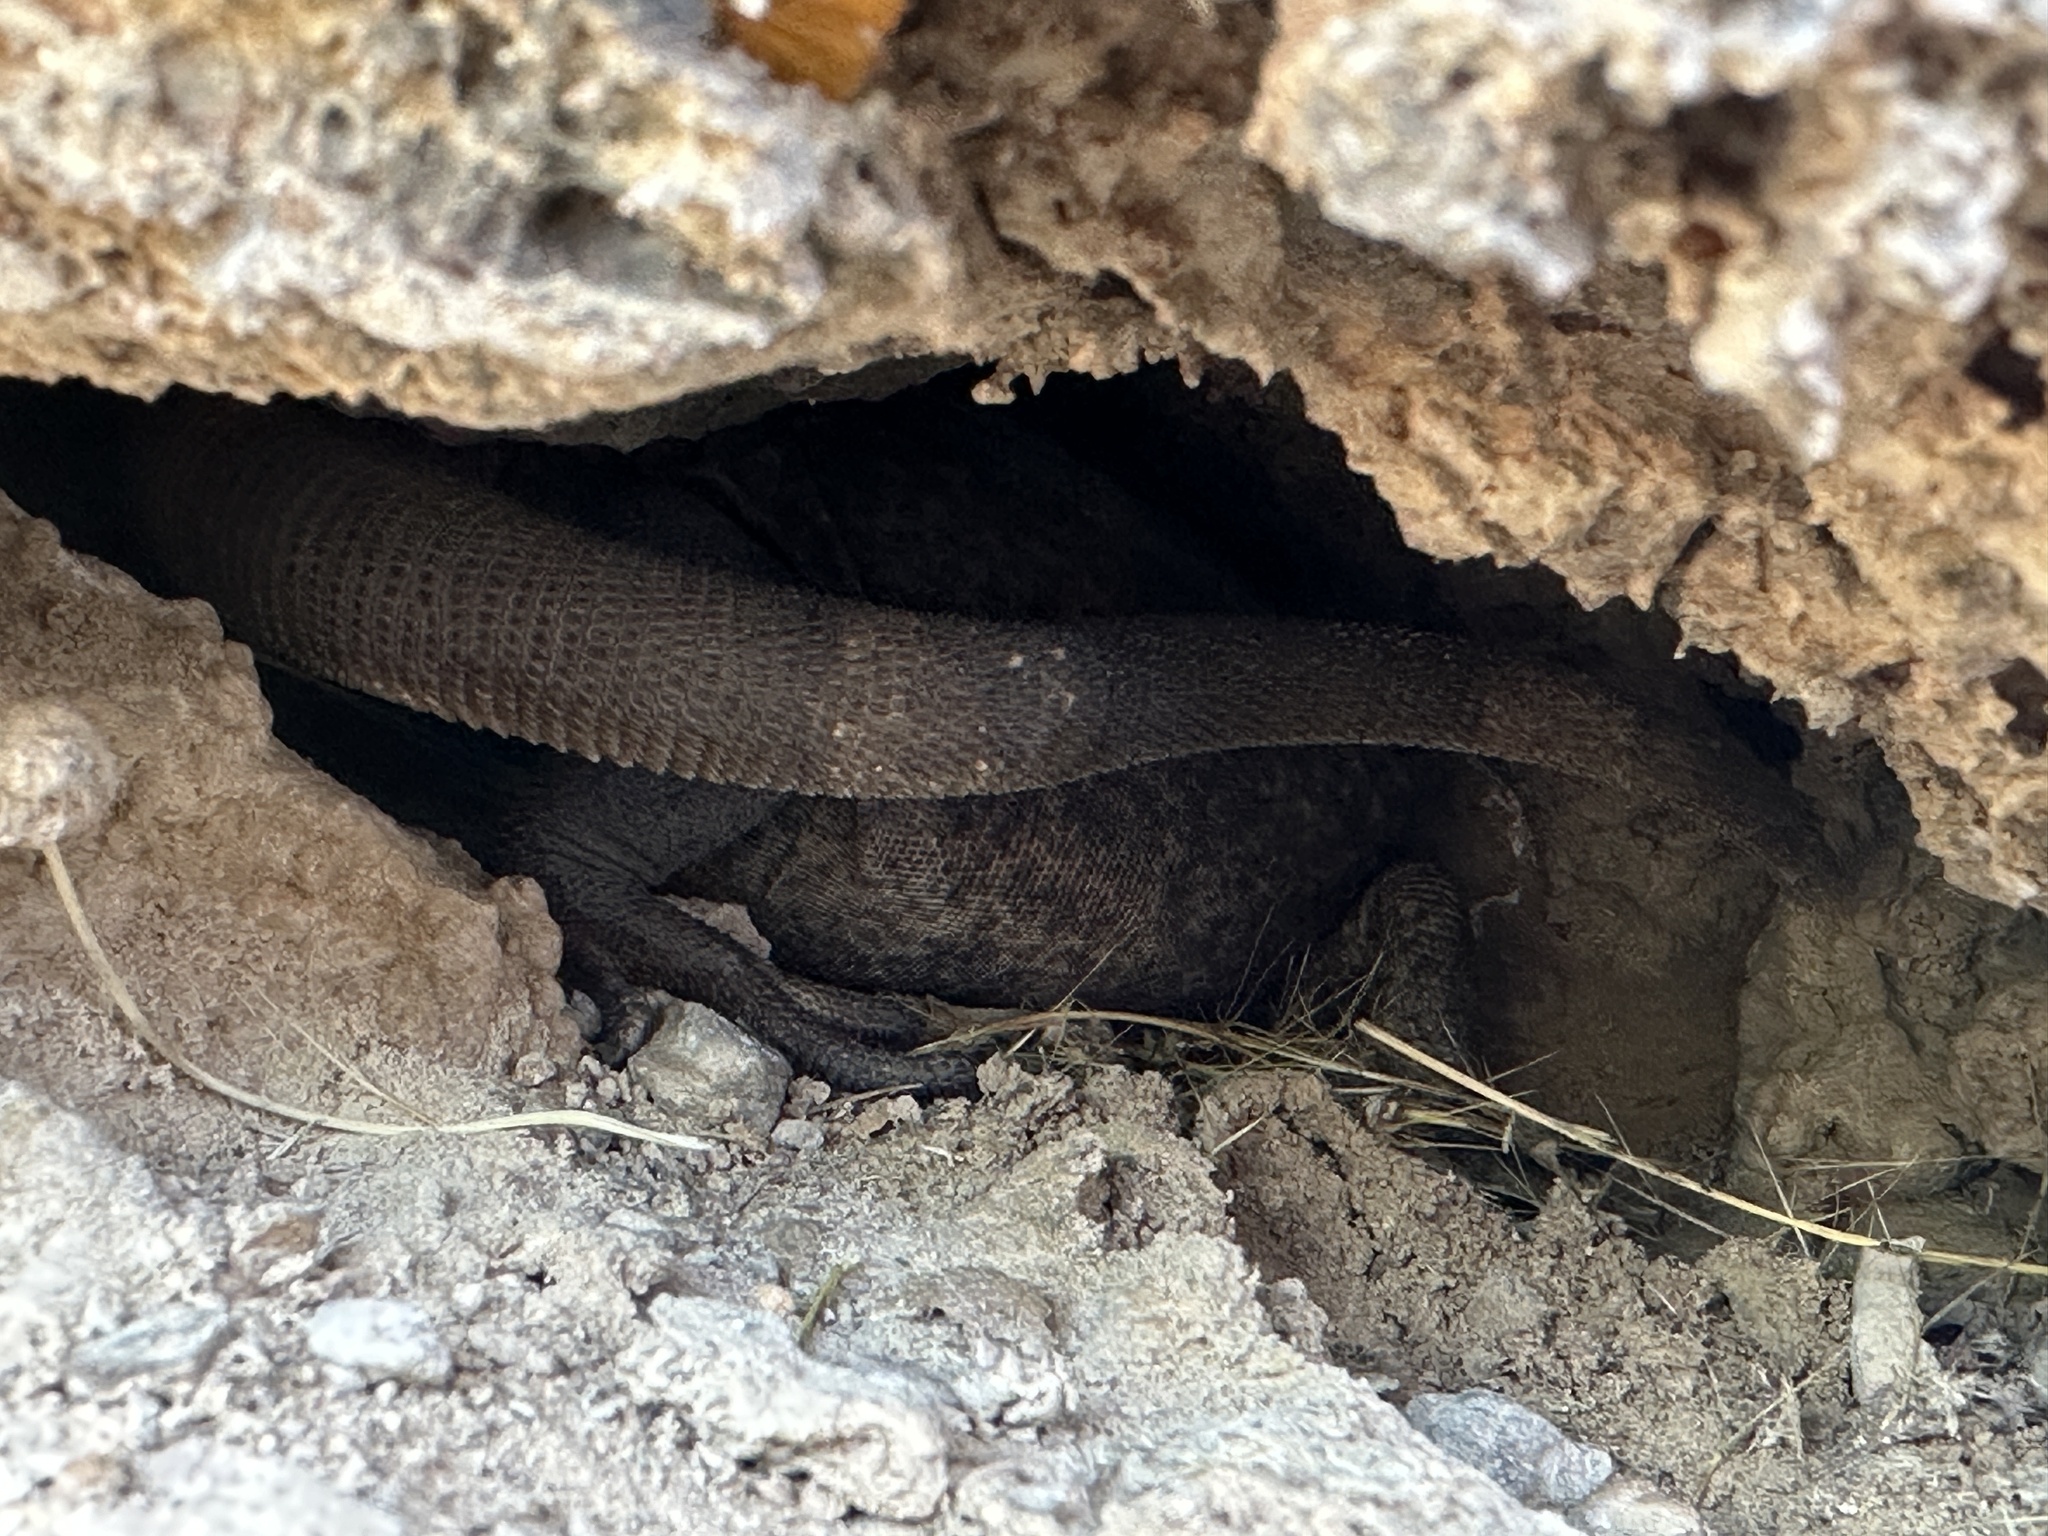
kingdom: Animalia
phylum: Chordata
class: Squamata
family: Iguanidae
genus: Sauromalus
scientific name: Sauromalus ater
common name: Northern chuckwalla
